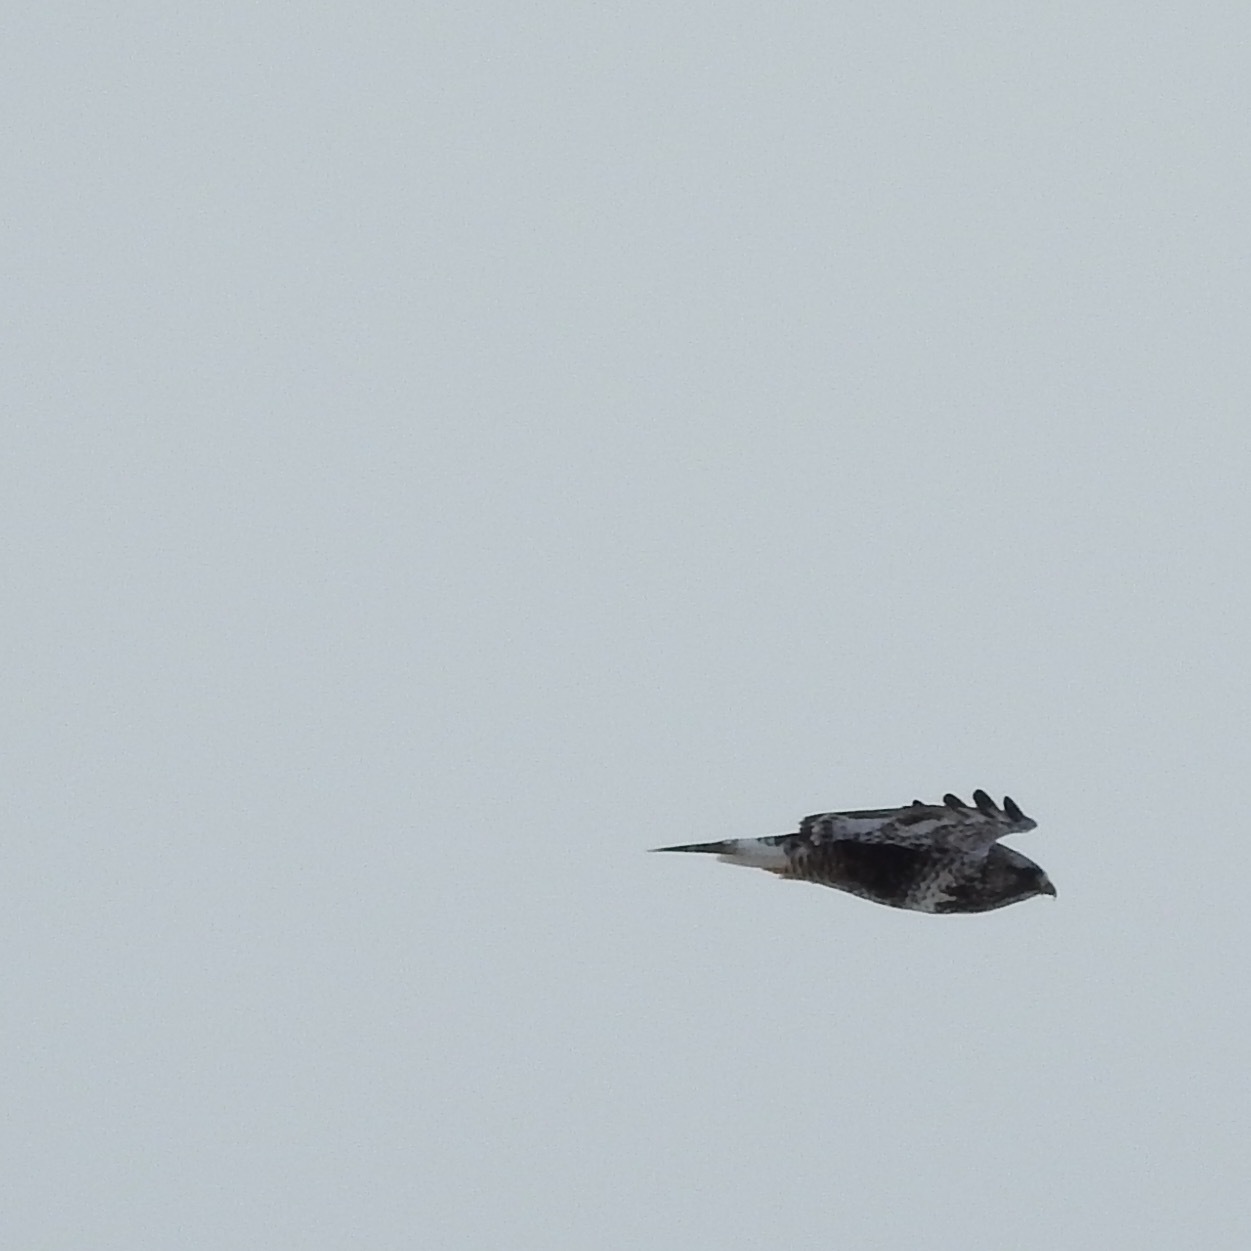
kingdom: Animalia
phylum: Chordata
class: Aves
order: Accipitriformes
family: Accipitridae
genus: Buteo
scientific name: Buteo lagopus
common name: Rough-legged buzzard
